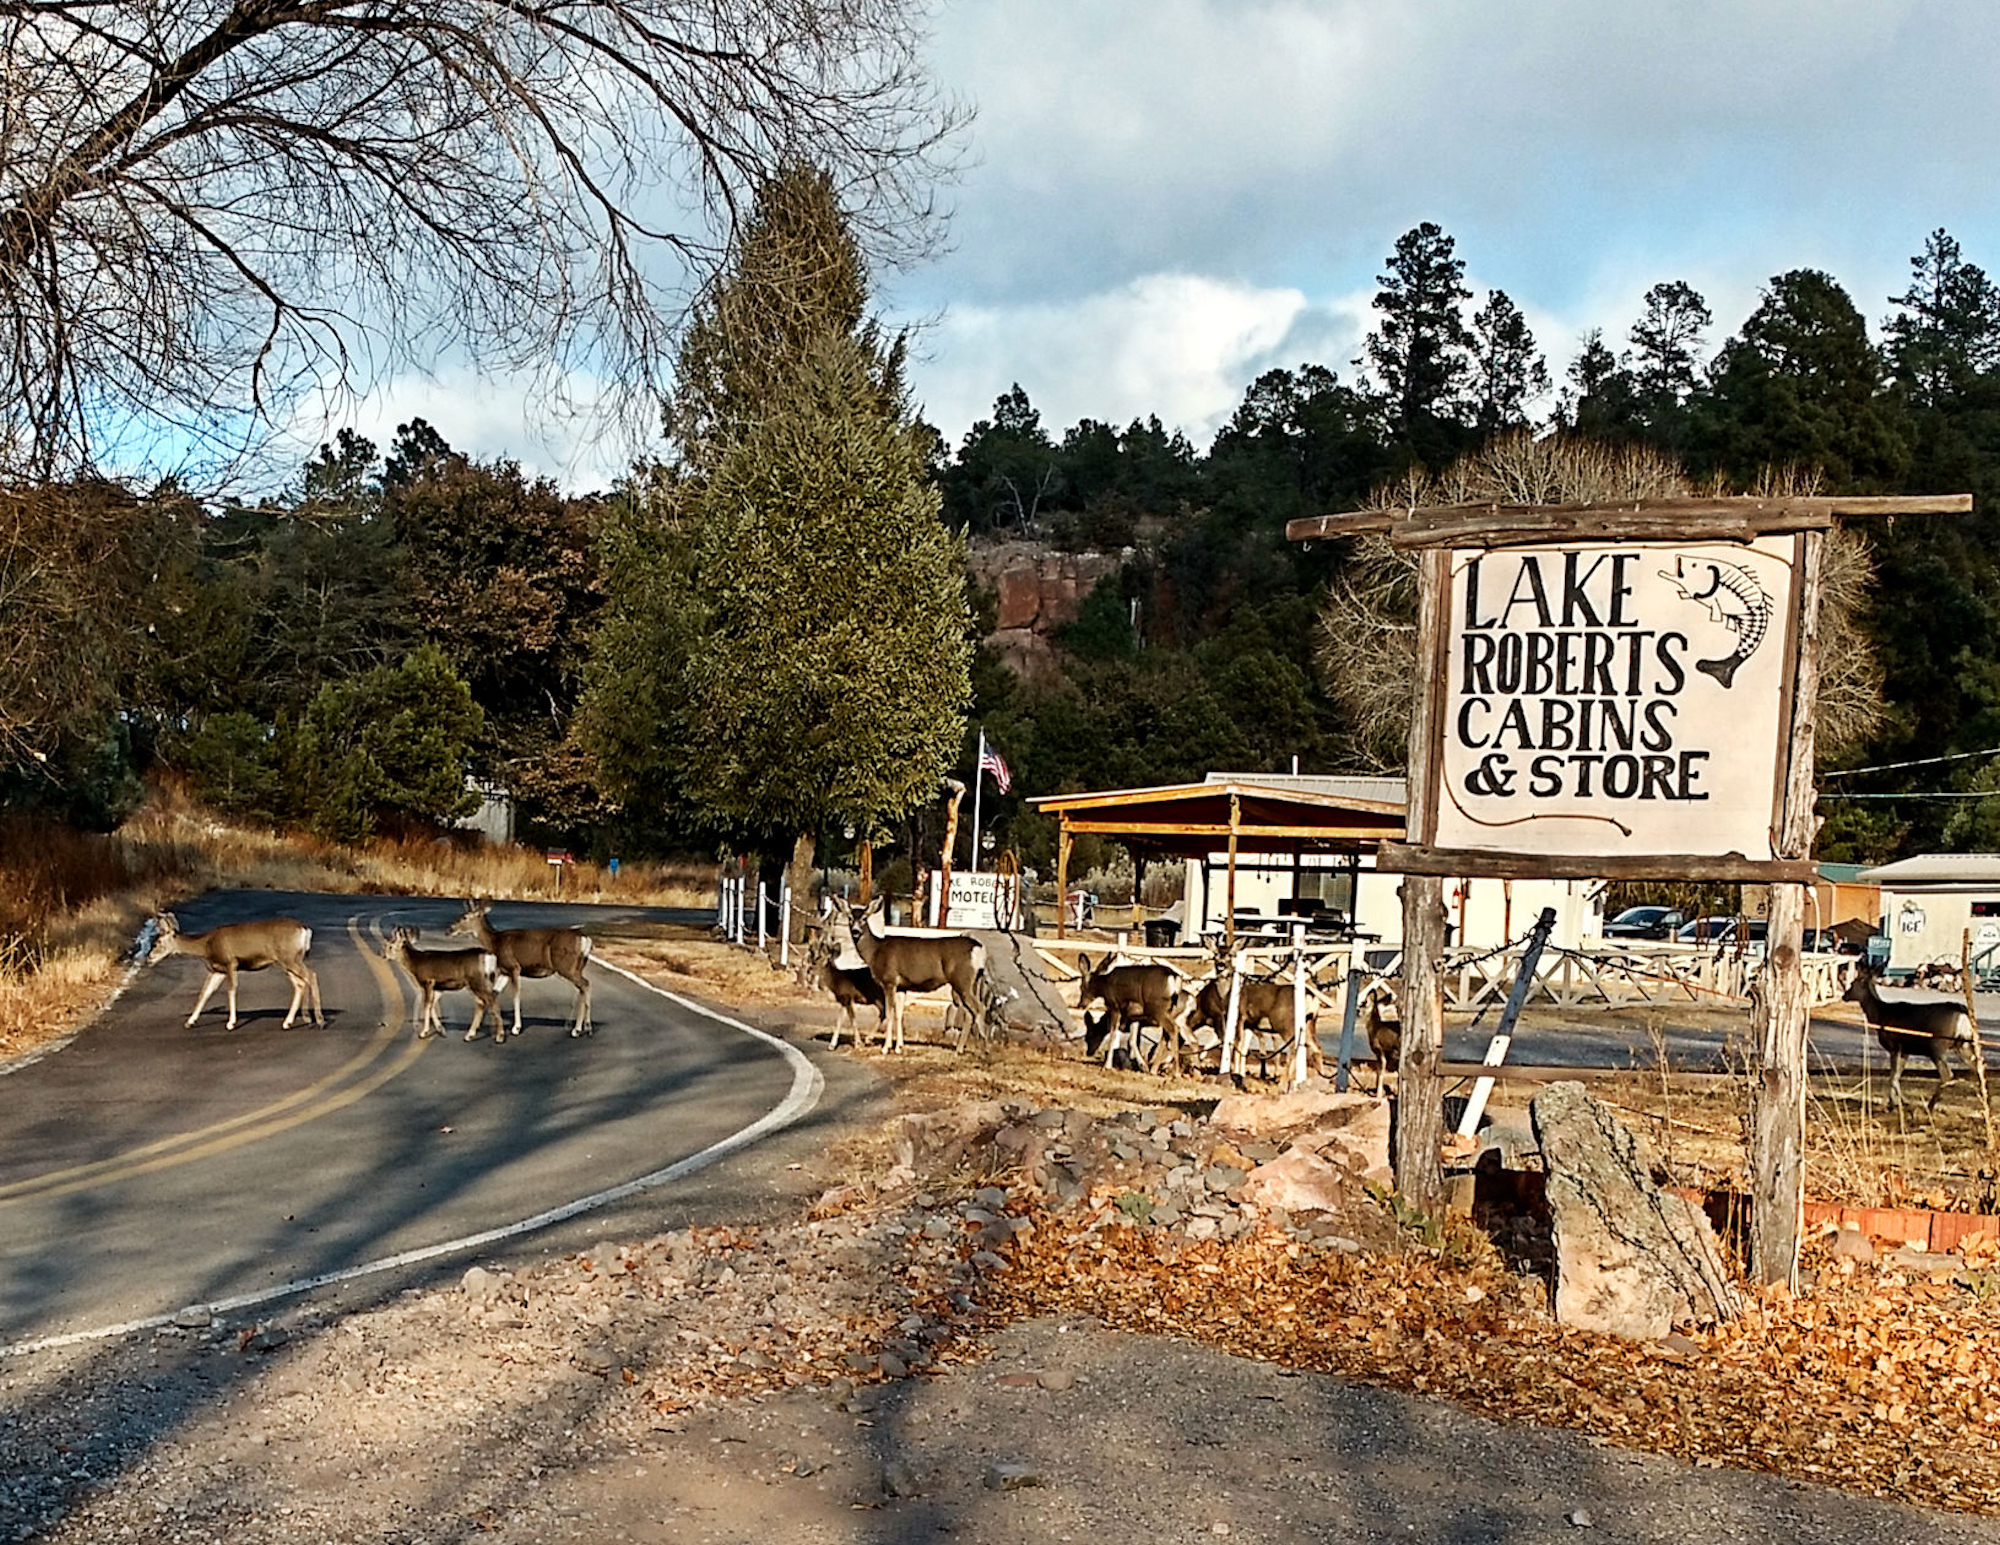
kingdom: Animalia
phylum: Chordata
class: Mammalia
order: Artiodactyla
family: Cervidae
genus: Odocoileus
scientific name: Odocoileus hemionus
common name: Mule deer
